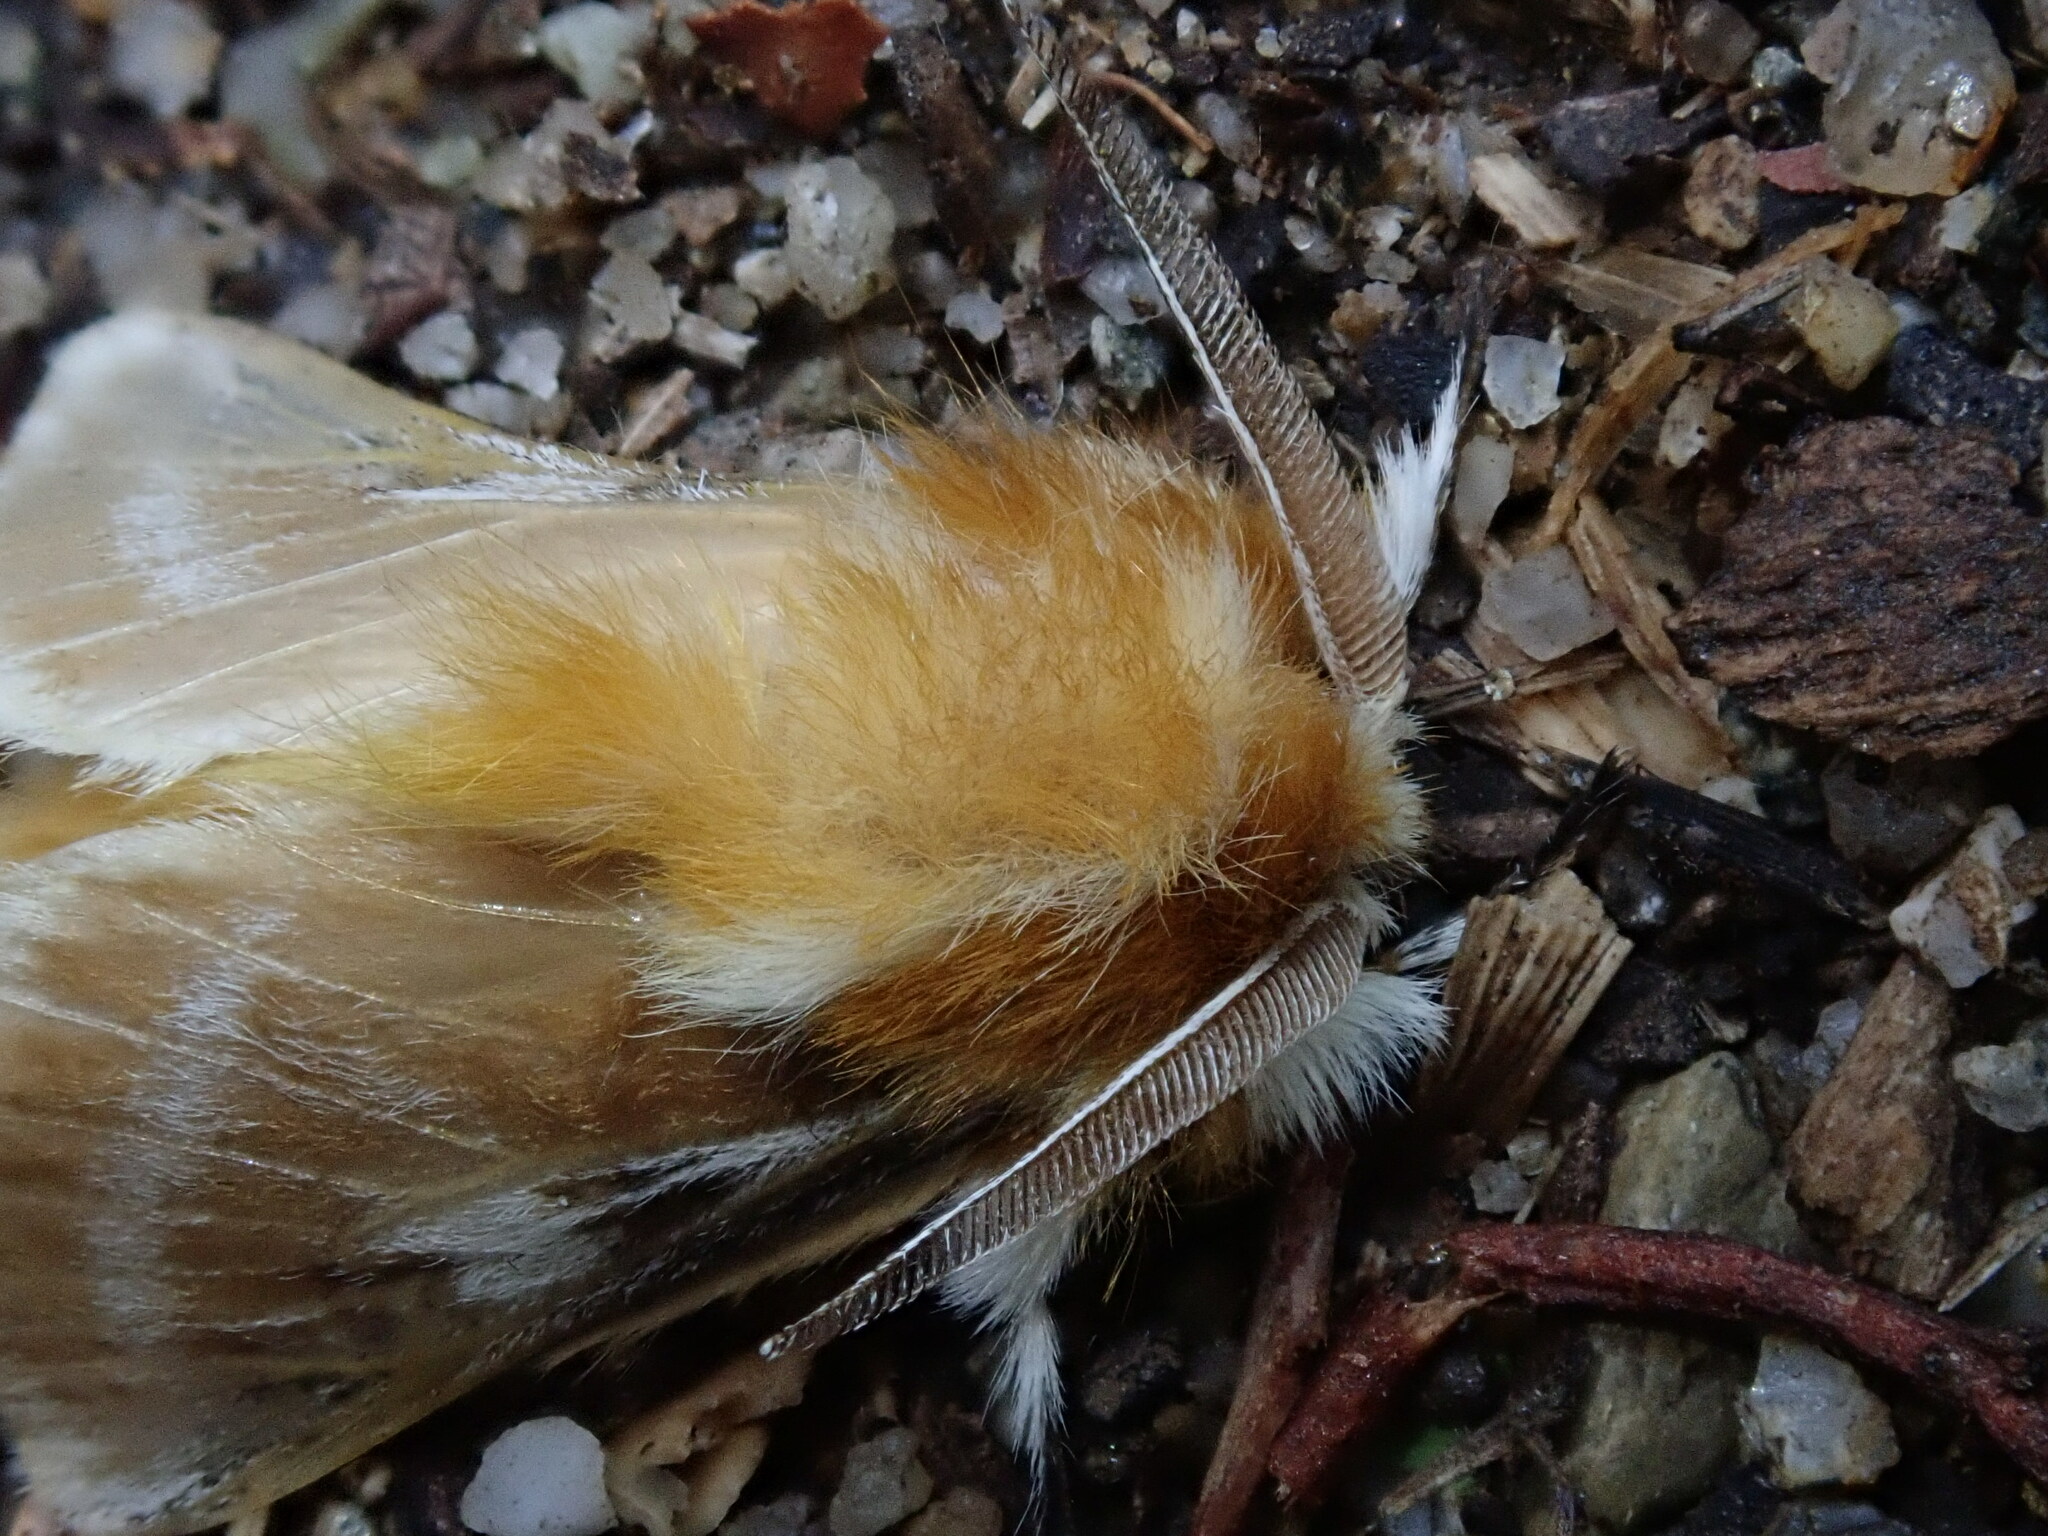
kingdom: Animalia
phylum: Arthropoda
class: Insecta
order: Lepidoptera
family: Megalopygidae
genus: Megalopyge
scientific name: Megalopyge amita
